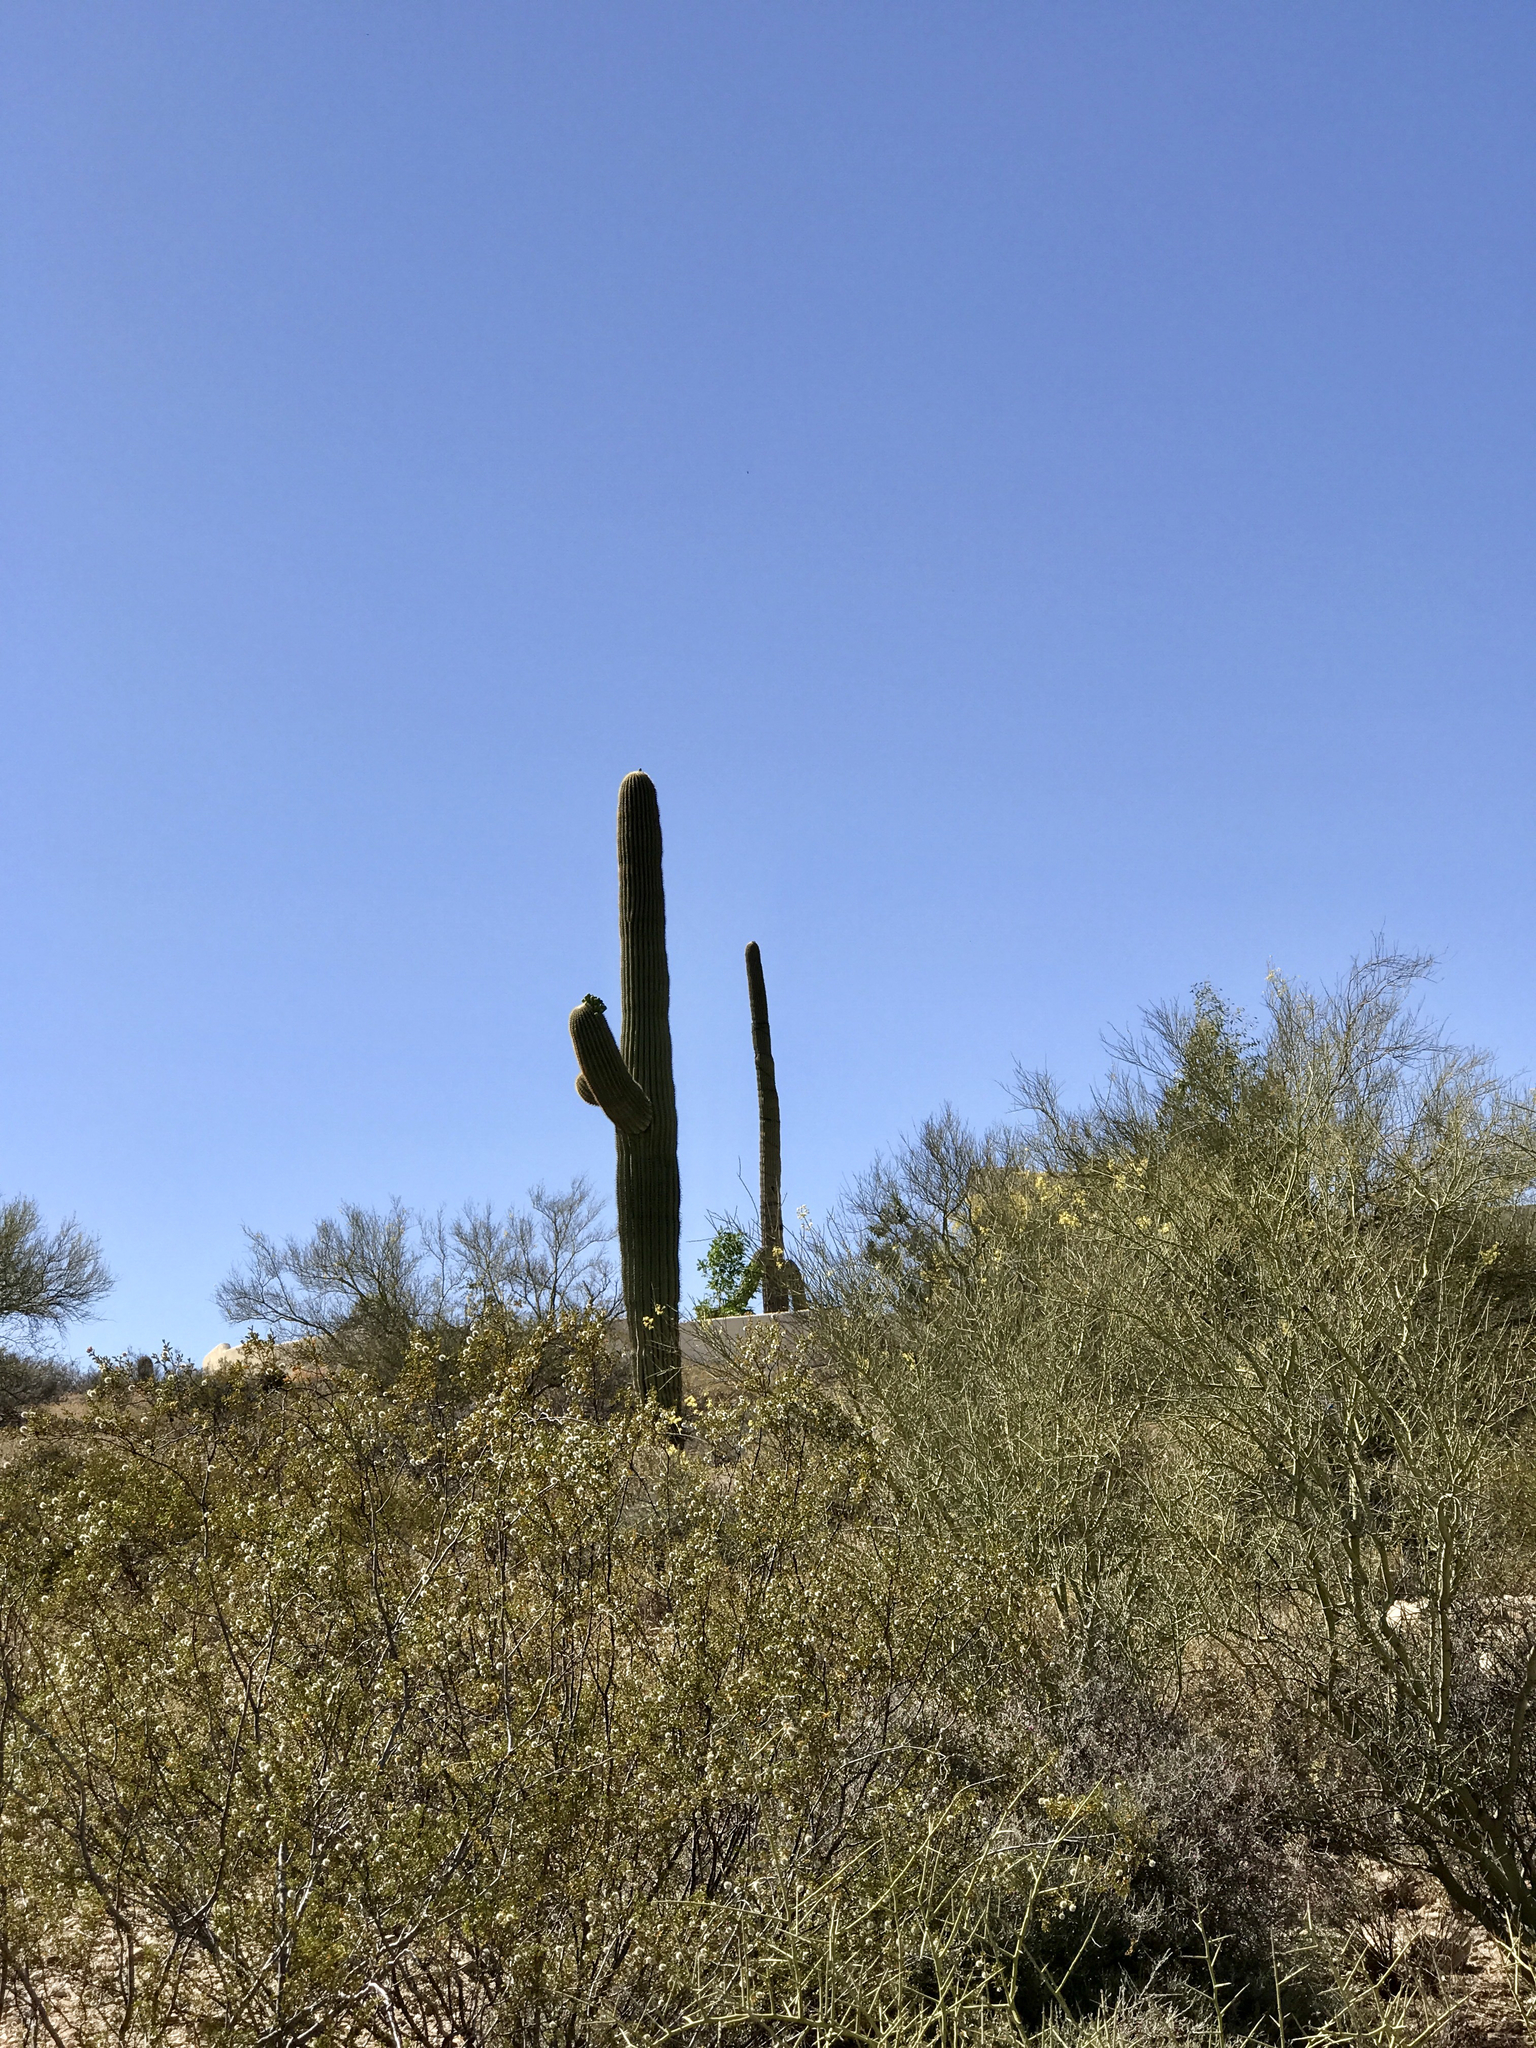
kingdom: Plantae
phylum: Tracheophyta
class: Magnoliopsida
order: Zygophyllales
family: Zygophyllaceae
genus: Larrea
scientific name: Larrea tridentata
